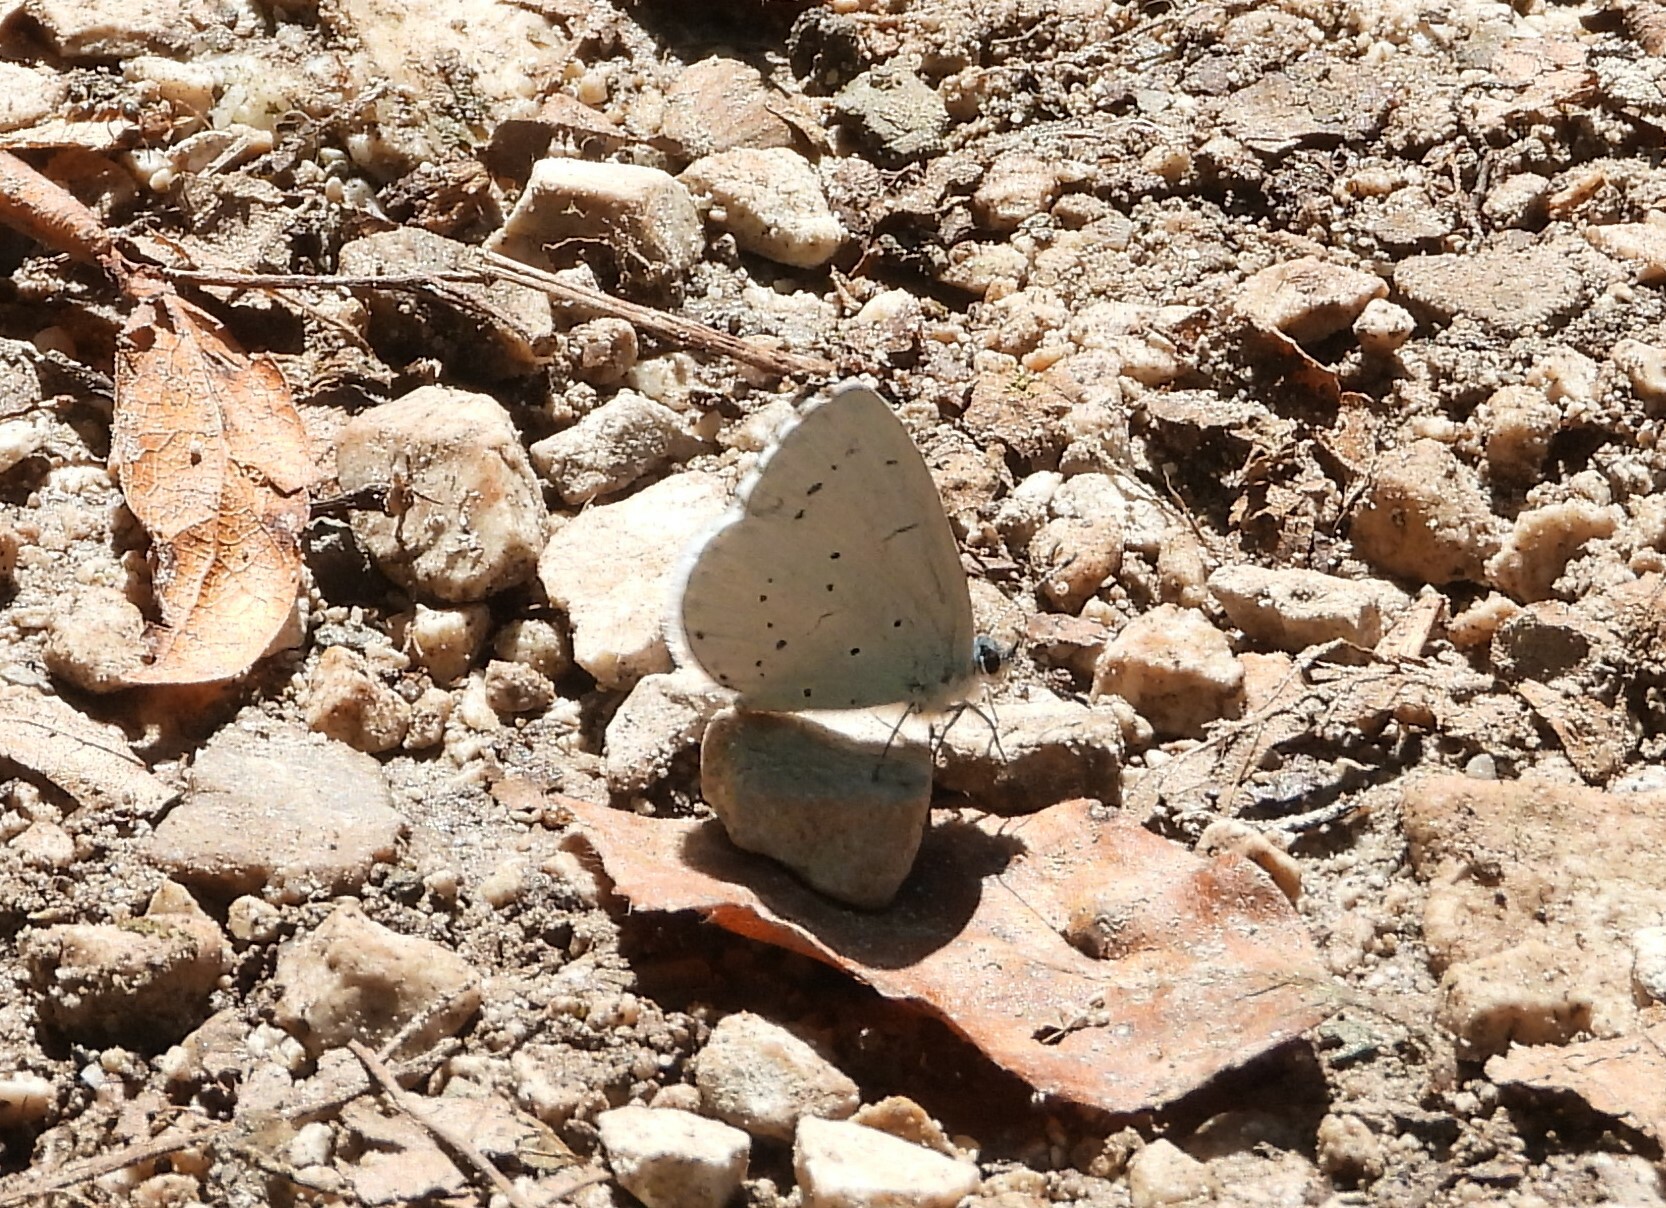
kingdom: Animalia
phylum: Arthropoda
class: Insecta
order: Lepidoptera
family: Lycaenidae
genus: Celastrina
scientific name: Celastrina argiolus
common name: Holly blue
